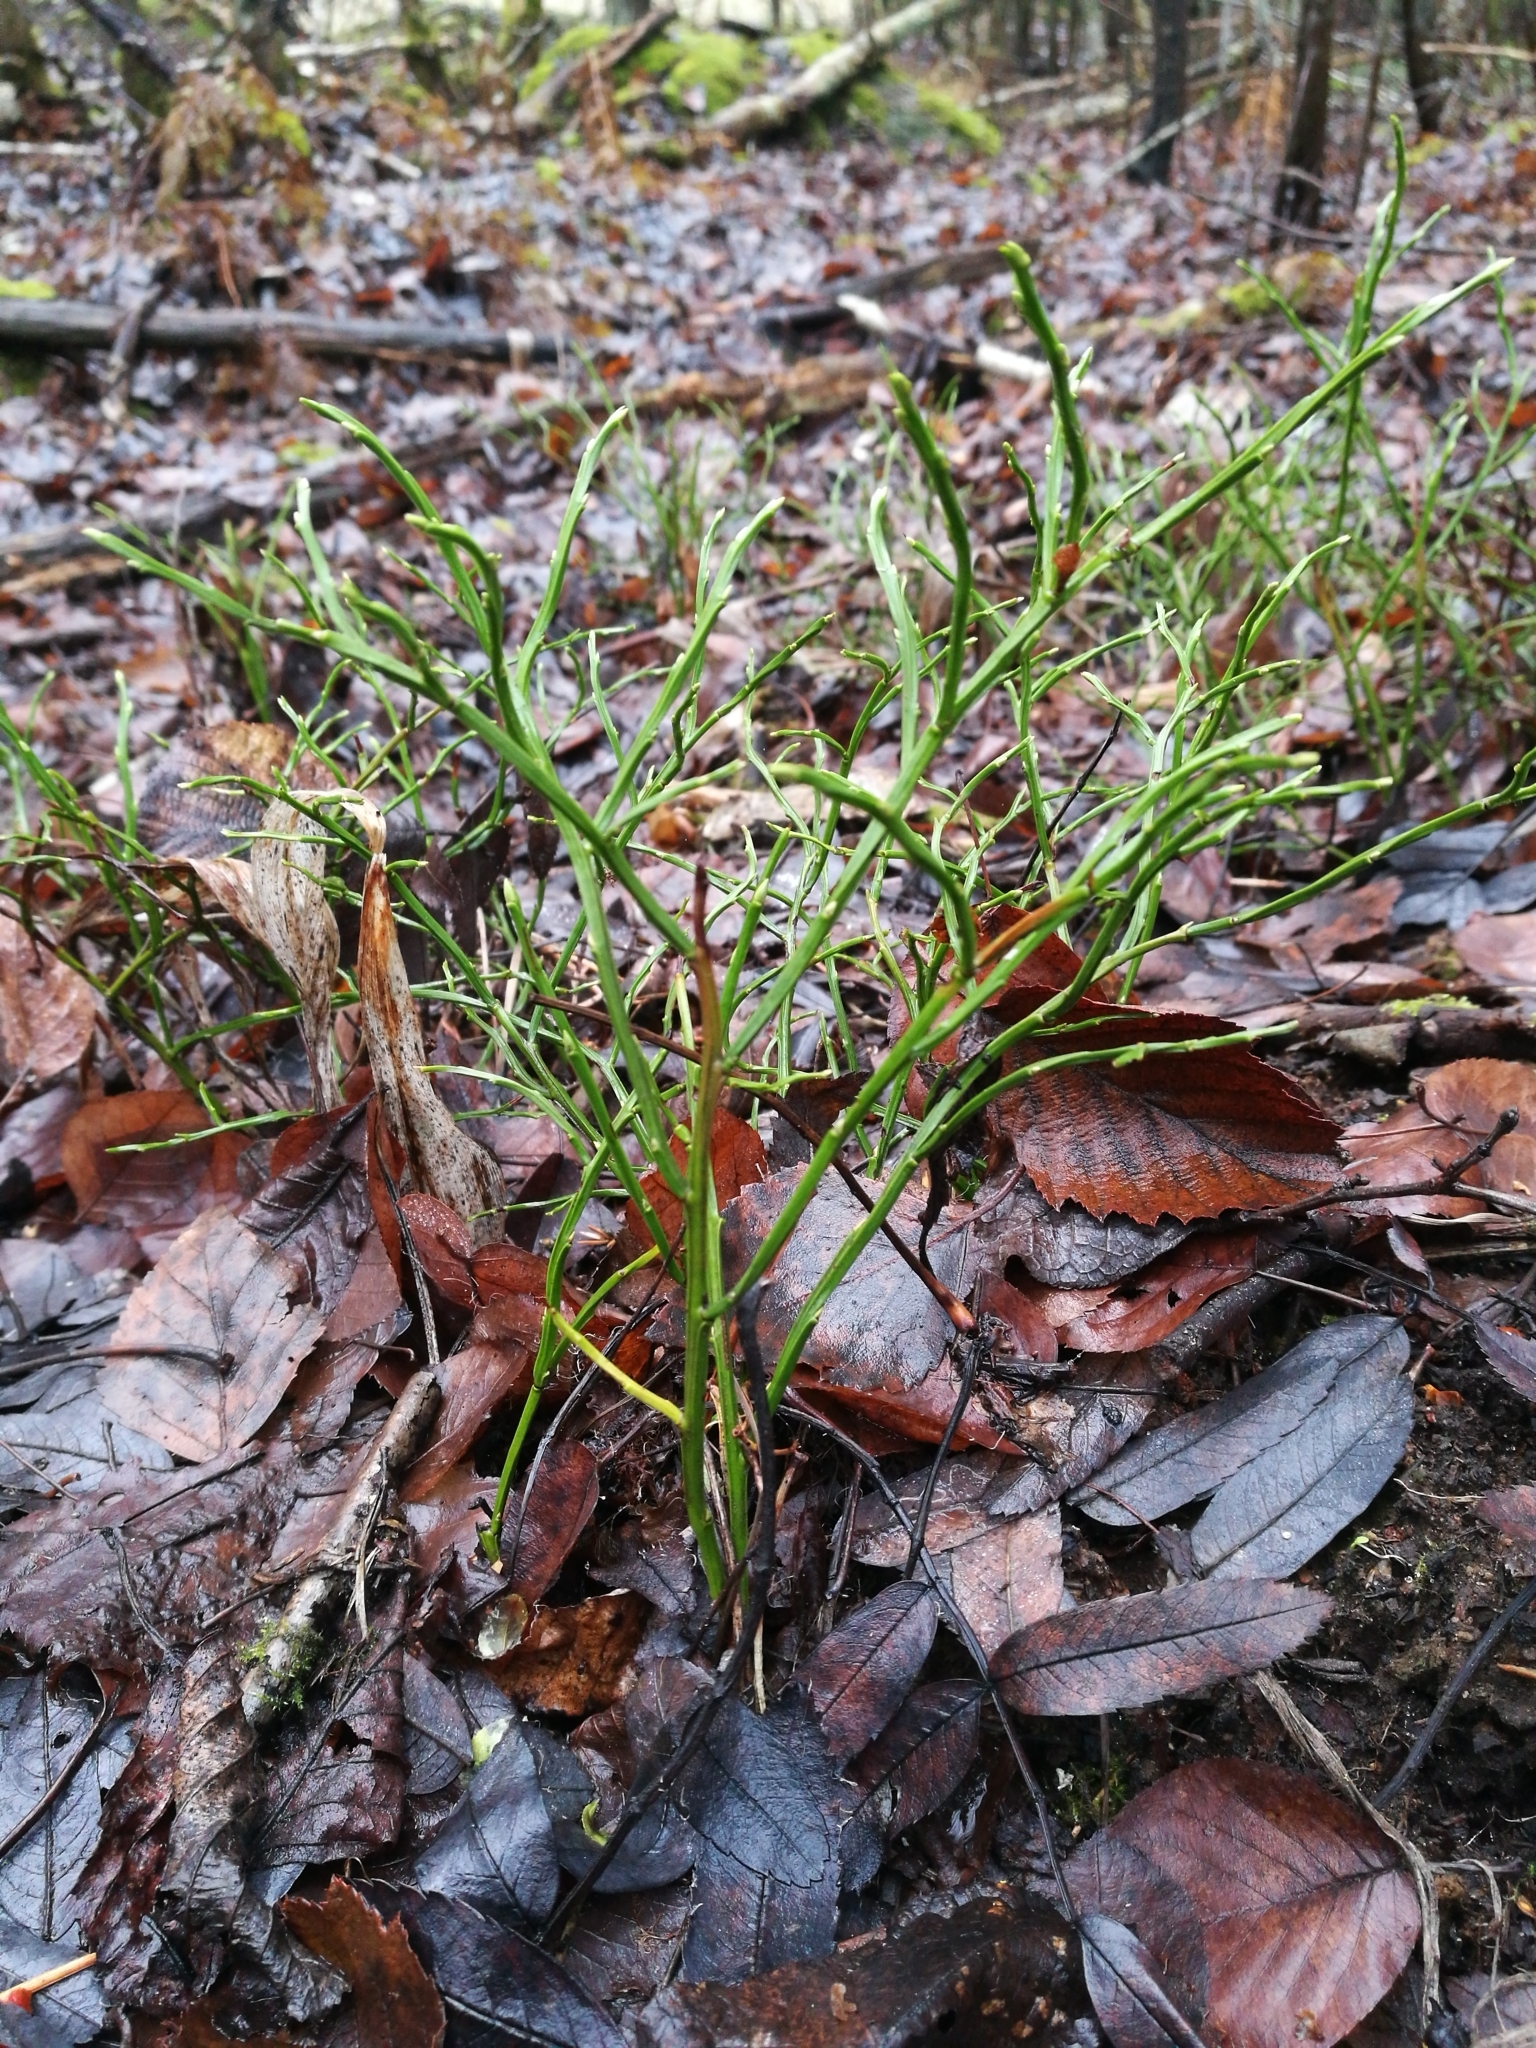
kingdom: Plantae
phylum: Tracheophyta
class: Magnoliopsida
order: Ericales
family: Ericaceae
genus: Vaccinium
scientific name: Vaccinium myrtillus
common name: Bilberry
